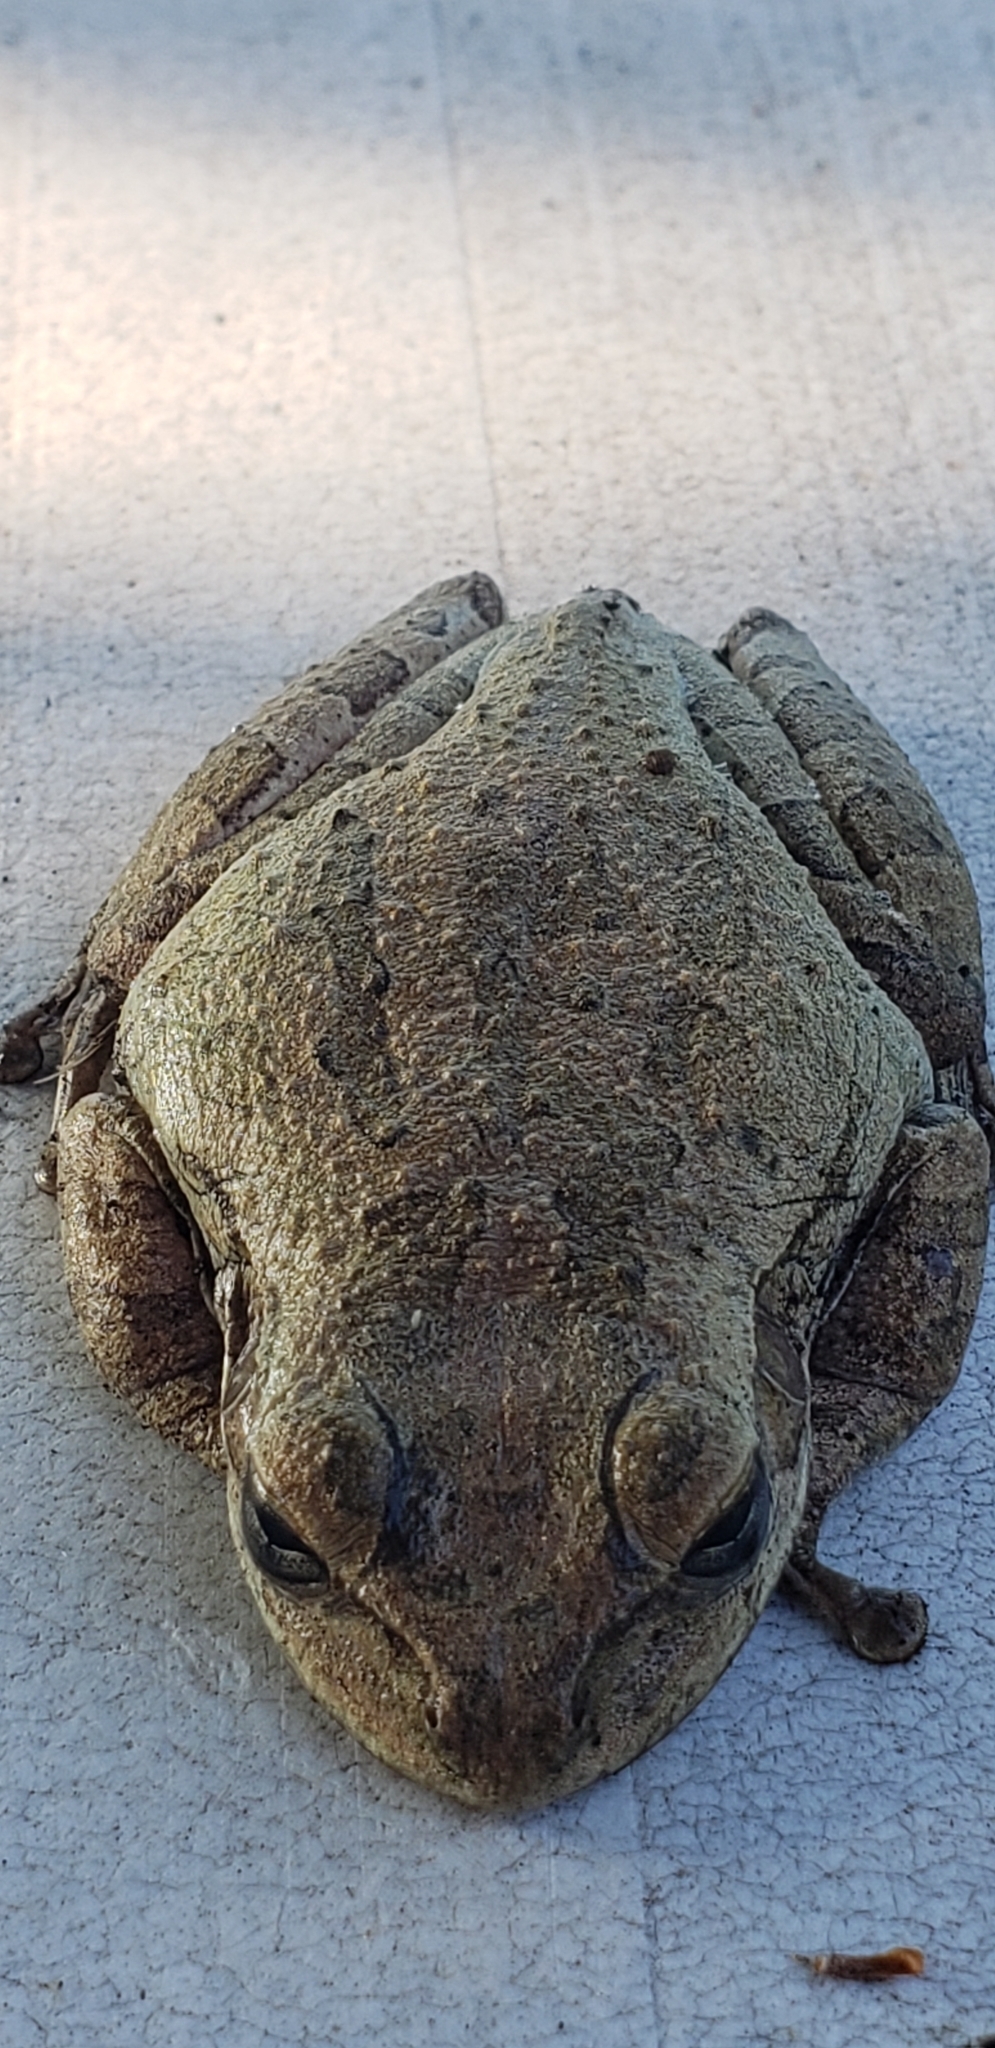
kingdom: Animalia
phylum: Chordata
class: Amphibia
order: Anura
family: Hylidae
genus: Osteopilus
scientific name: Osteopilus septentrionalis
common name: Cuban treefrog
